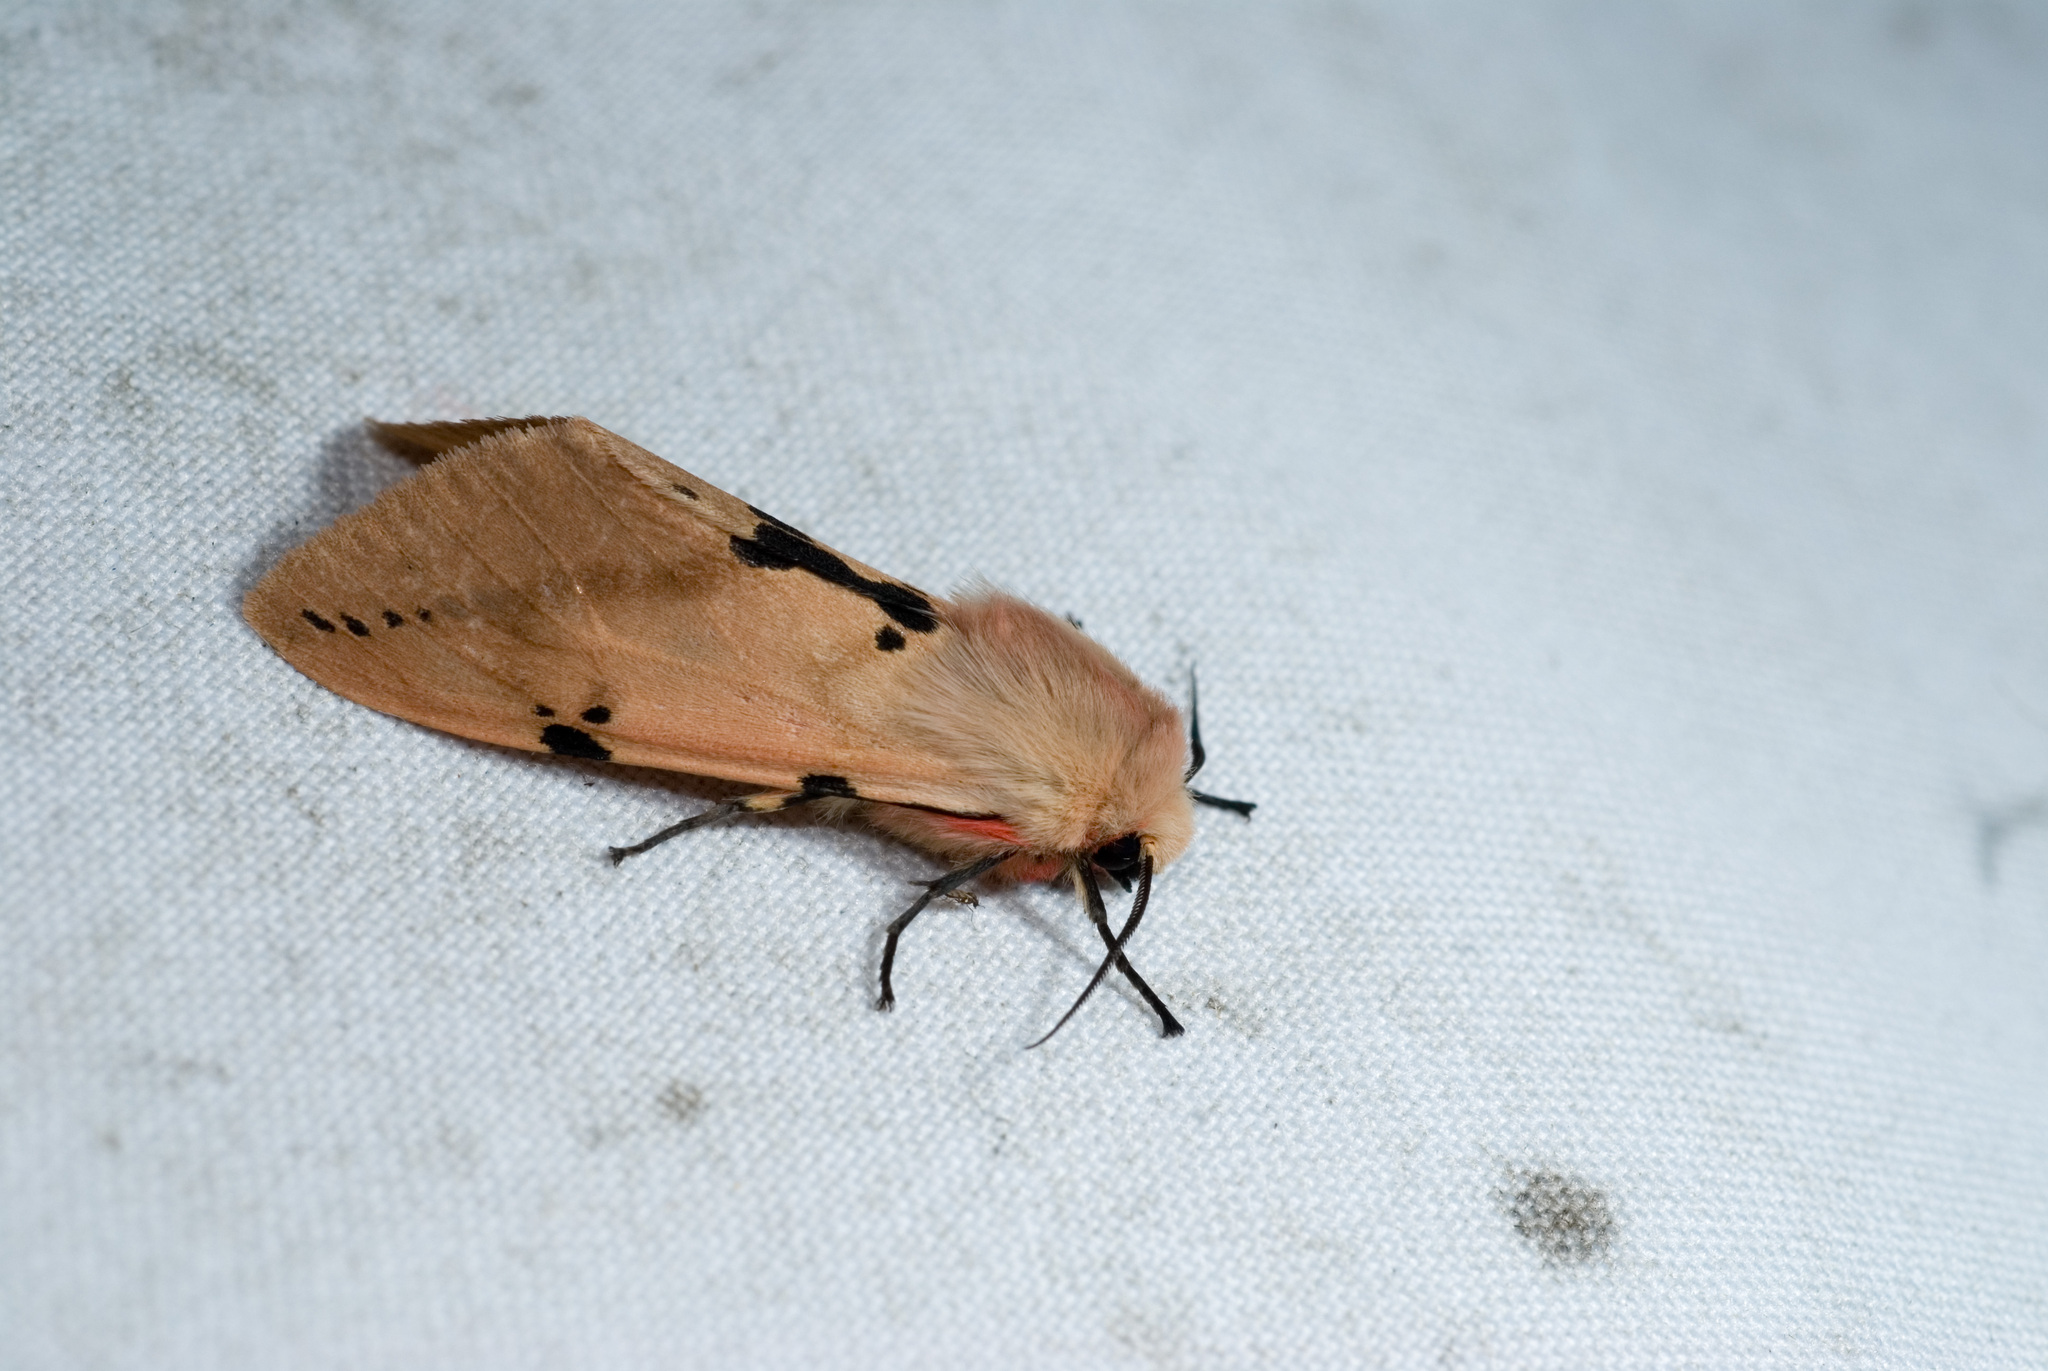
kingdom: Animalia
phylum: Arthropoda
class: Insecta
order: Lepidoptera
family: Erebidae
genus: Spilarctia
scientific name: Spilarctia clava
